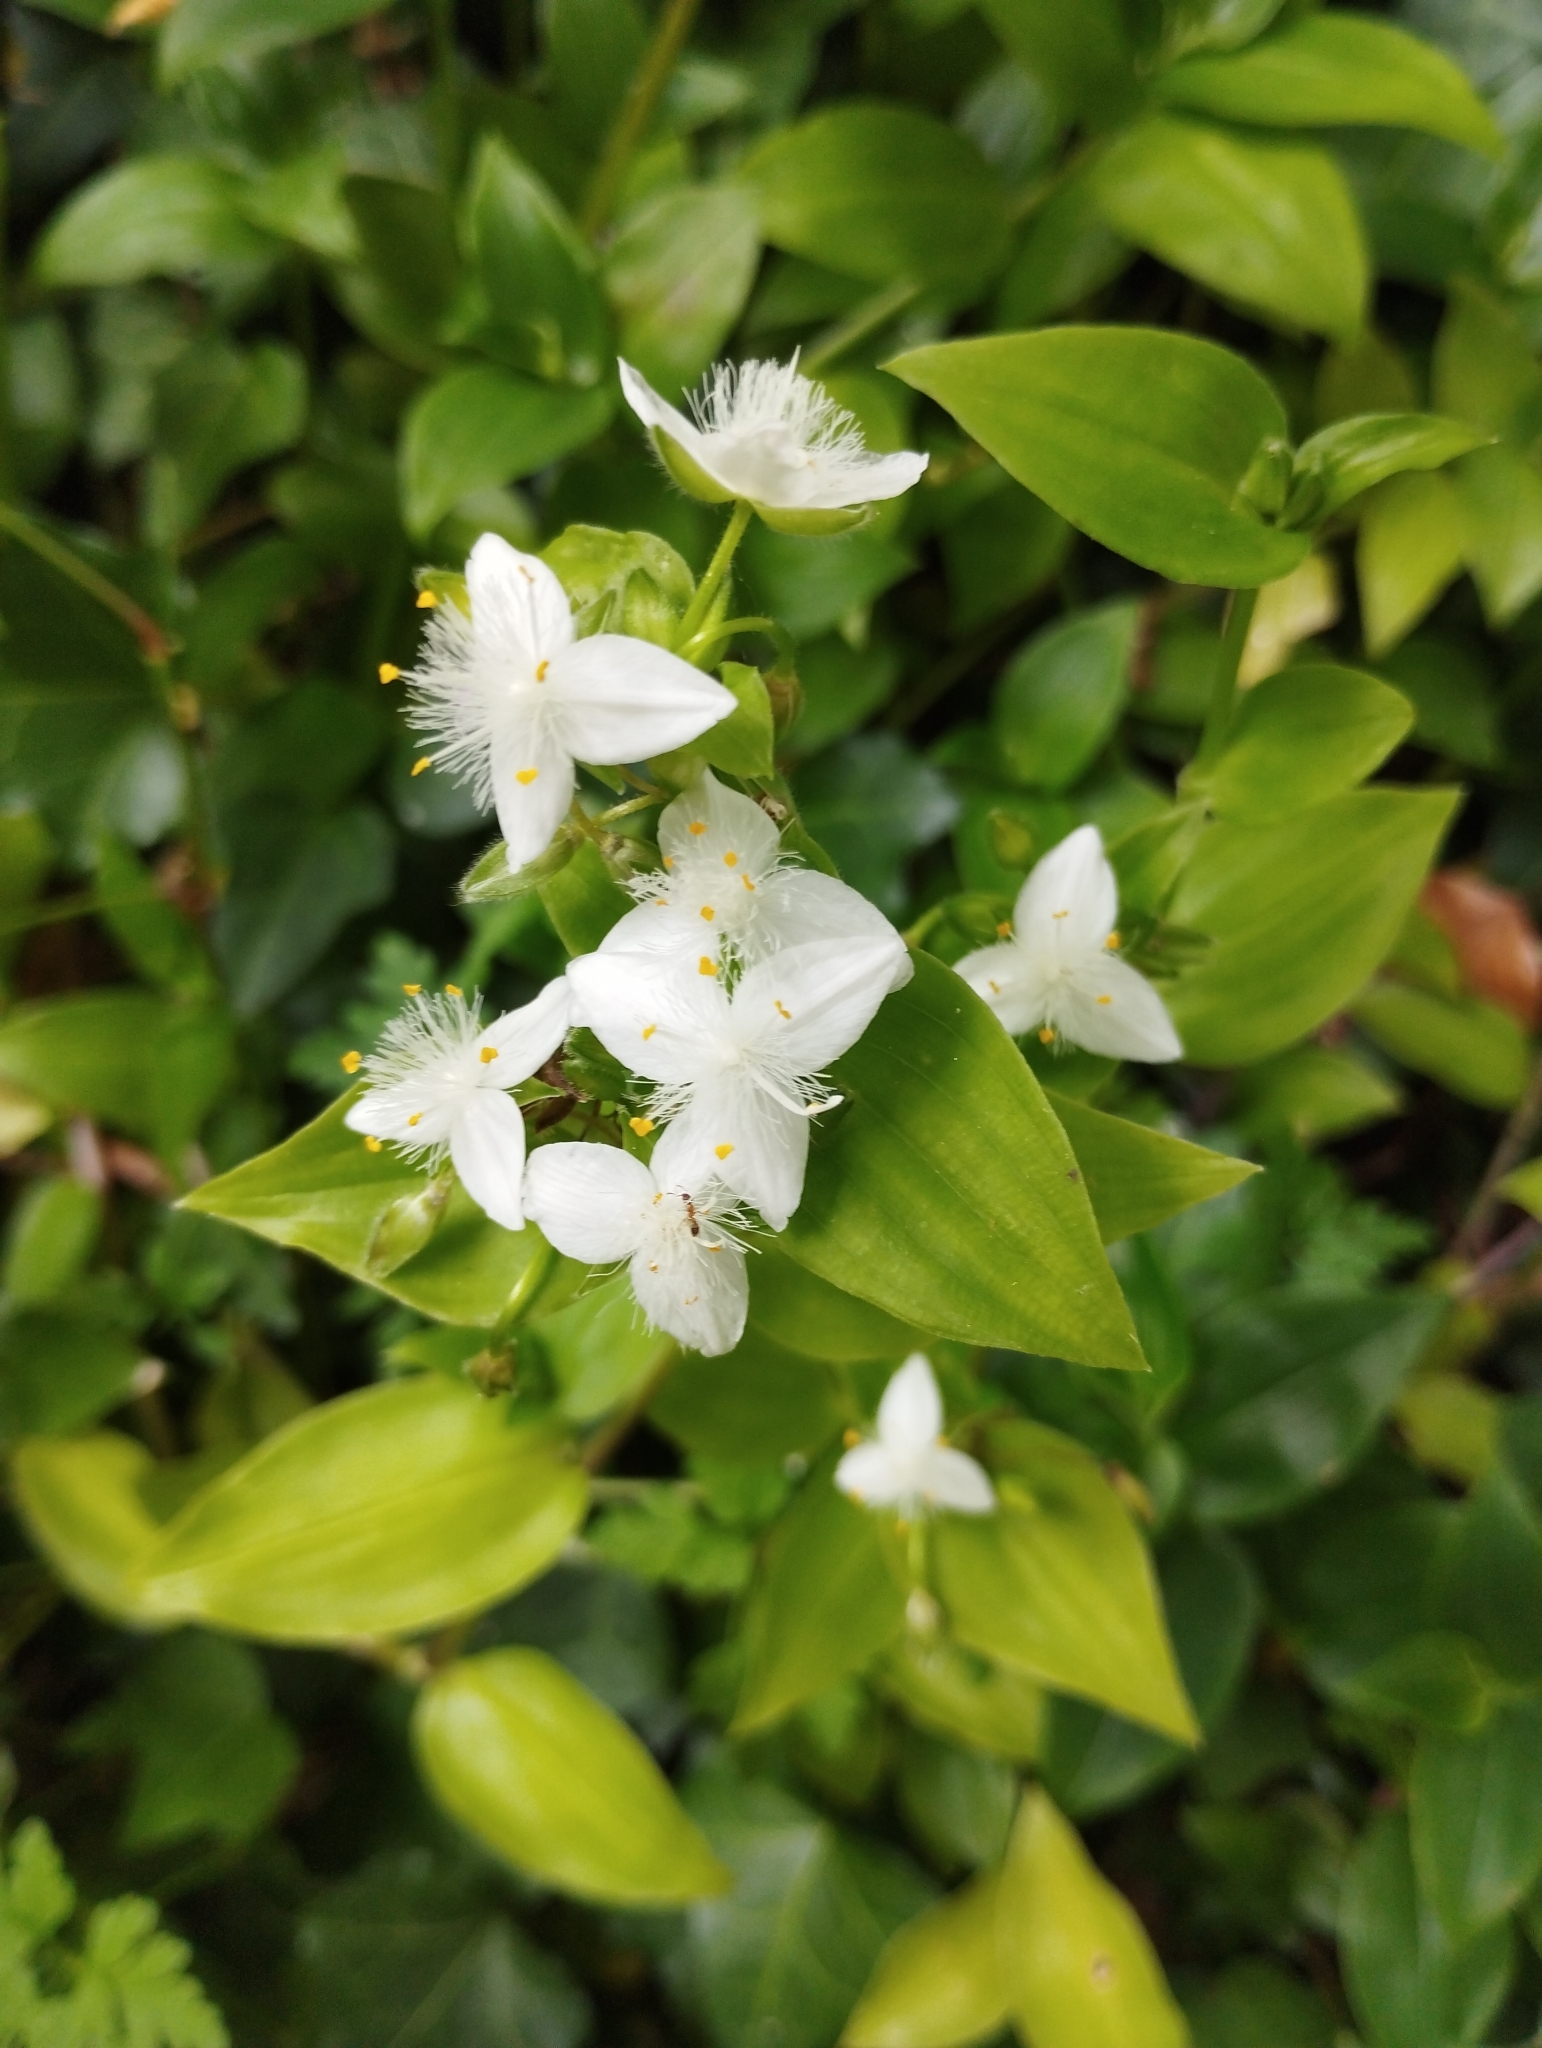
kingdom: Plantae
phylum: Tracheophyta
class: Liliopsida
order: Commelinales
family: Commelinaceae
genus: Tradescantia
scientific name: Tradescantia fluminensis
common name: Wandering-jew
